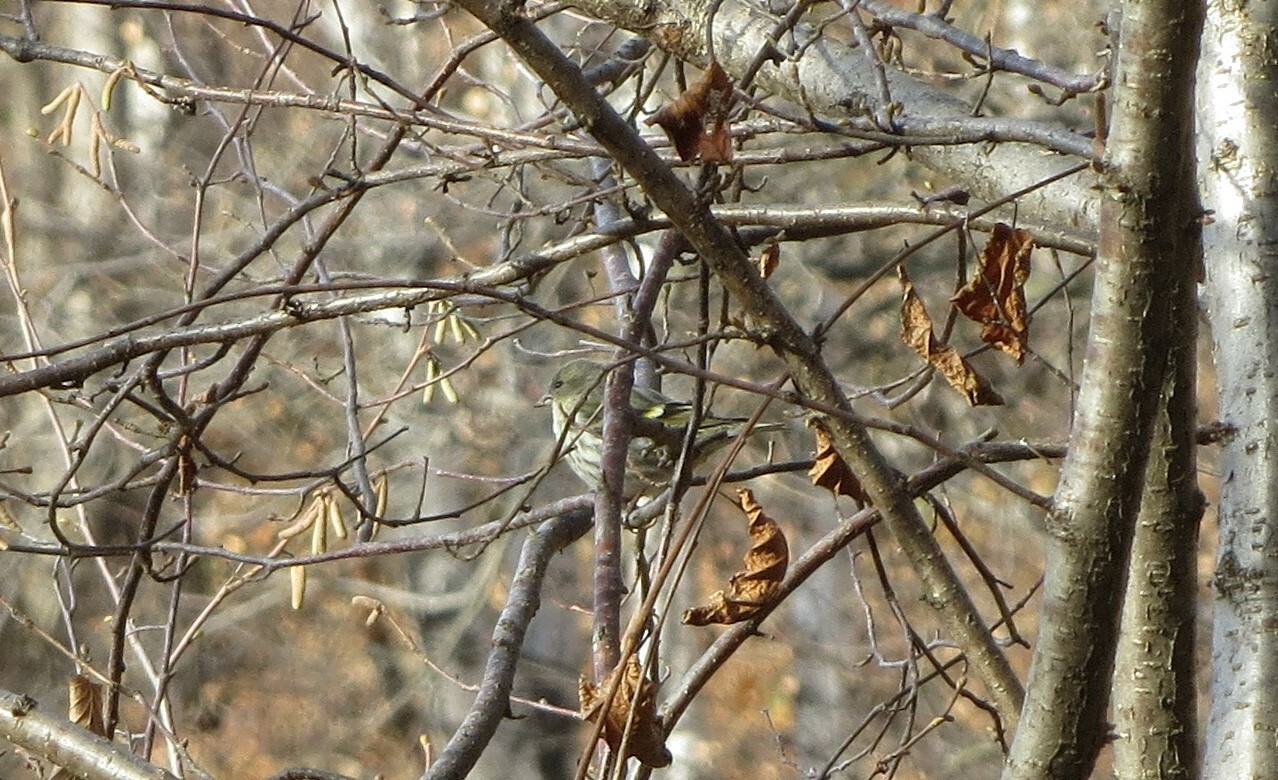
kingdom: Animalia
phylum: Chordata
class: Aves
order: Passeriformes
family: Fringillidae
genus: Spinus
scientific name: Spinus spinus
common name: Eurasian siskin
